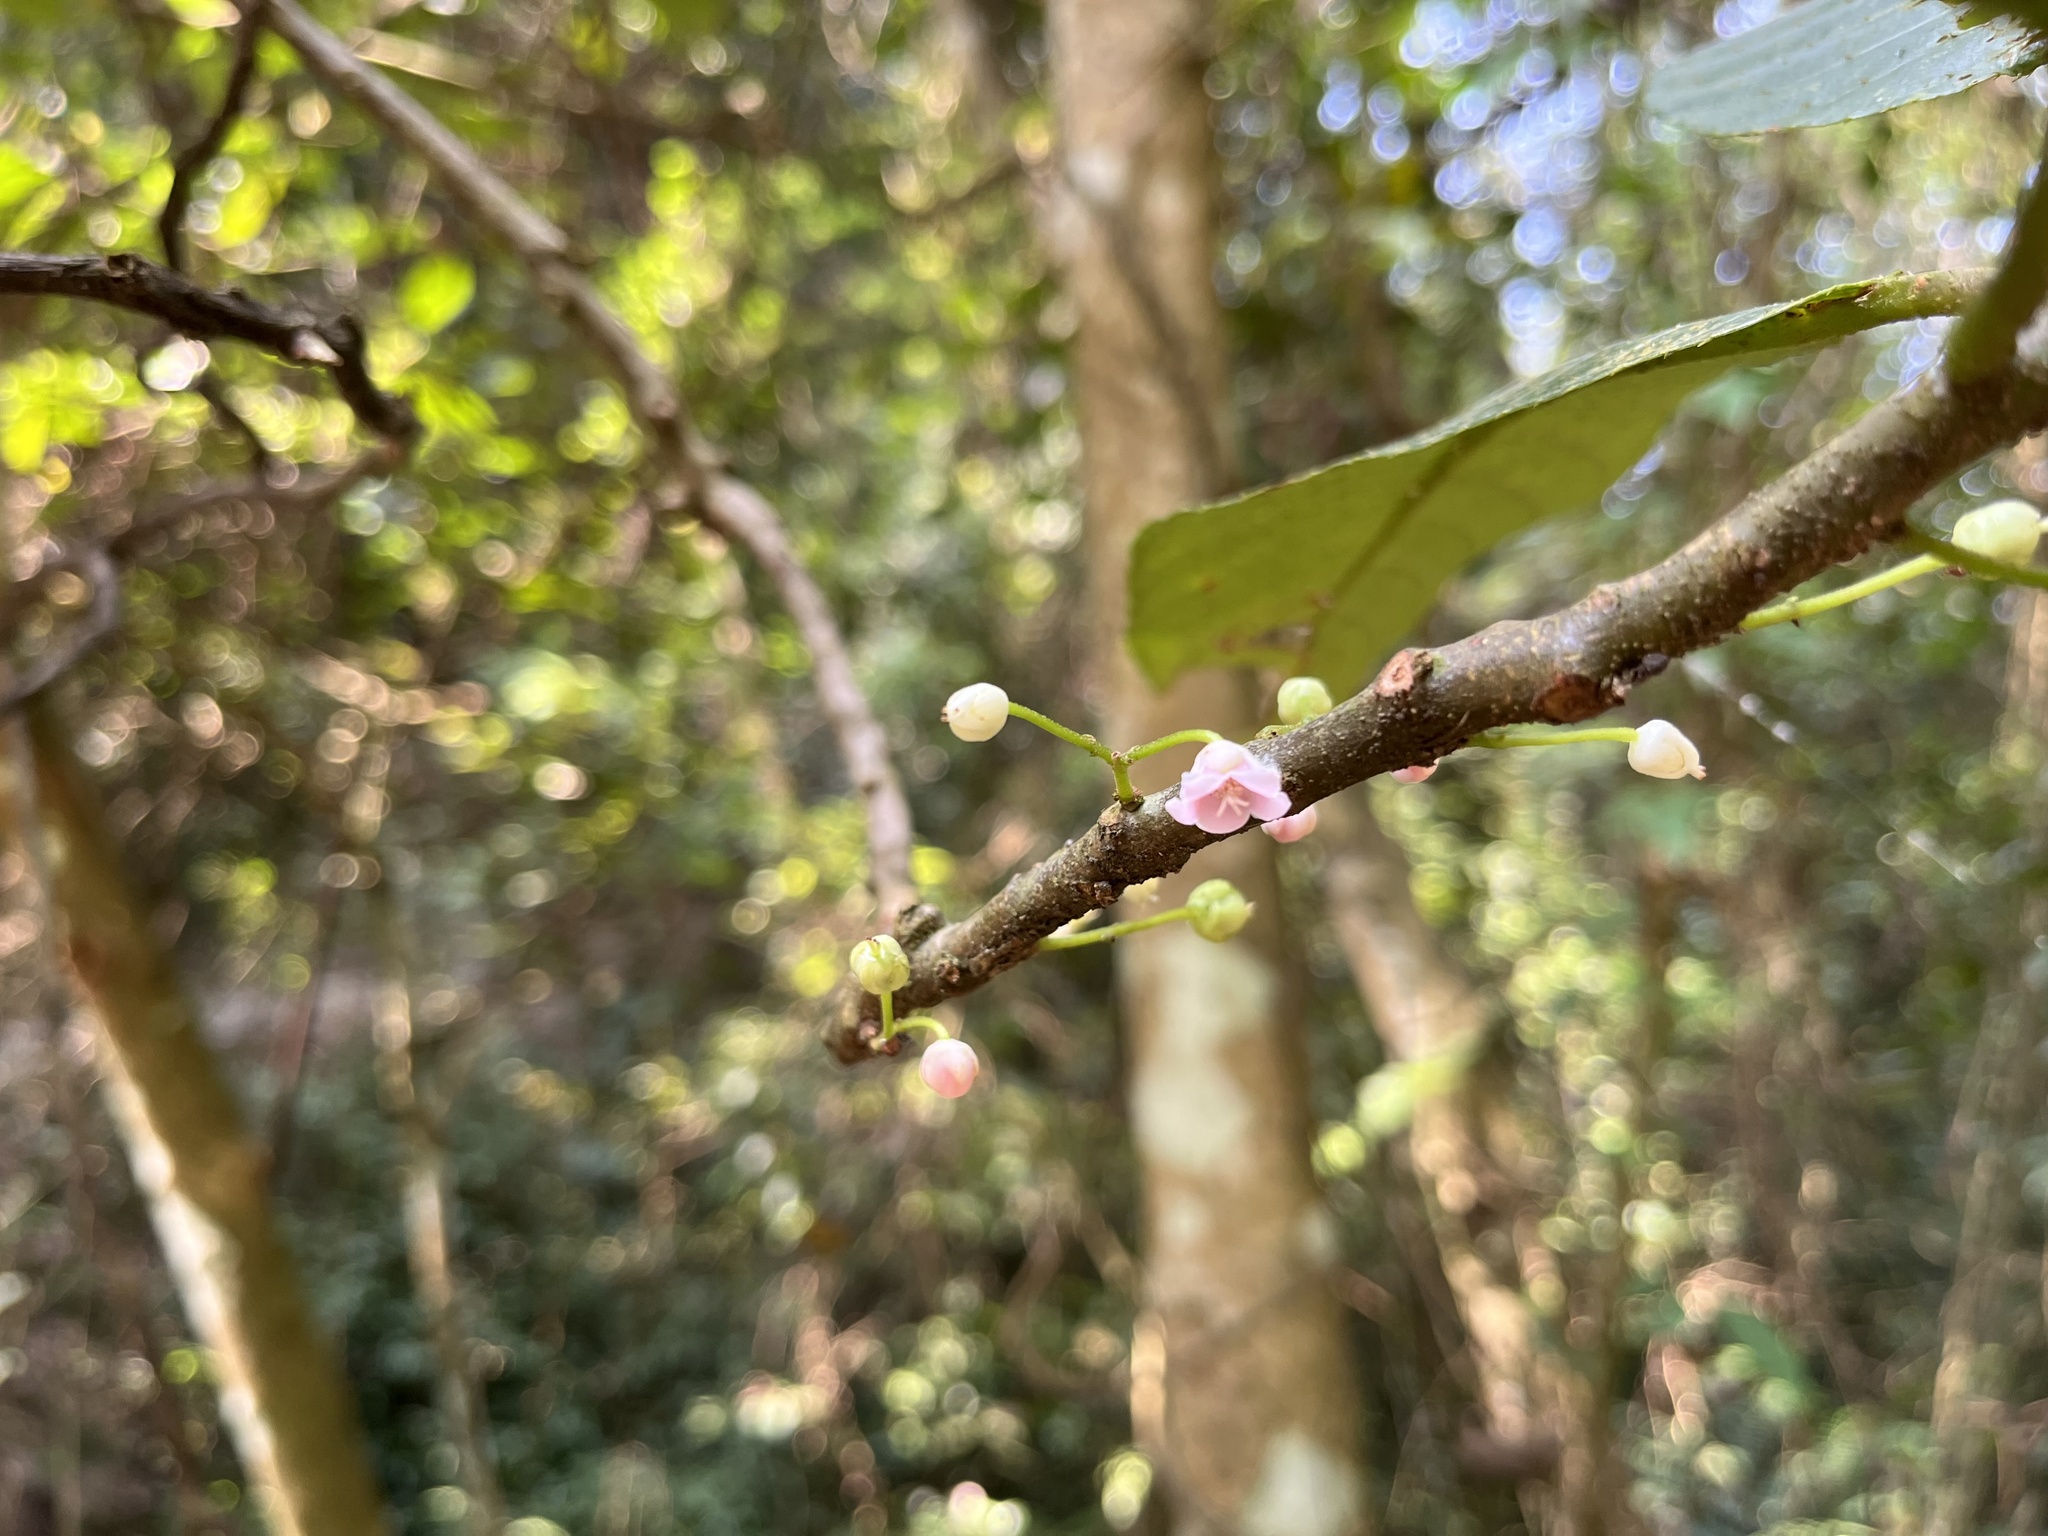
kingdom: Plantae
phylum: Tracheophyta
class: Magnoliopsida
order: Ericales
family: Actinidiaceae
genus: Saurauia
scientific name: Saurauia tristyla
